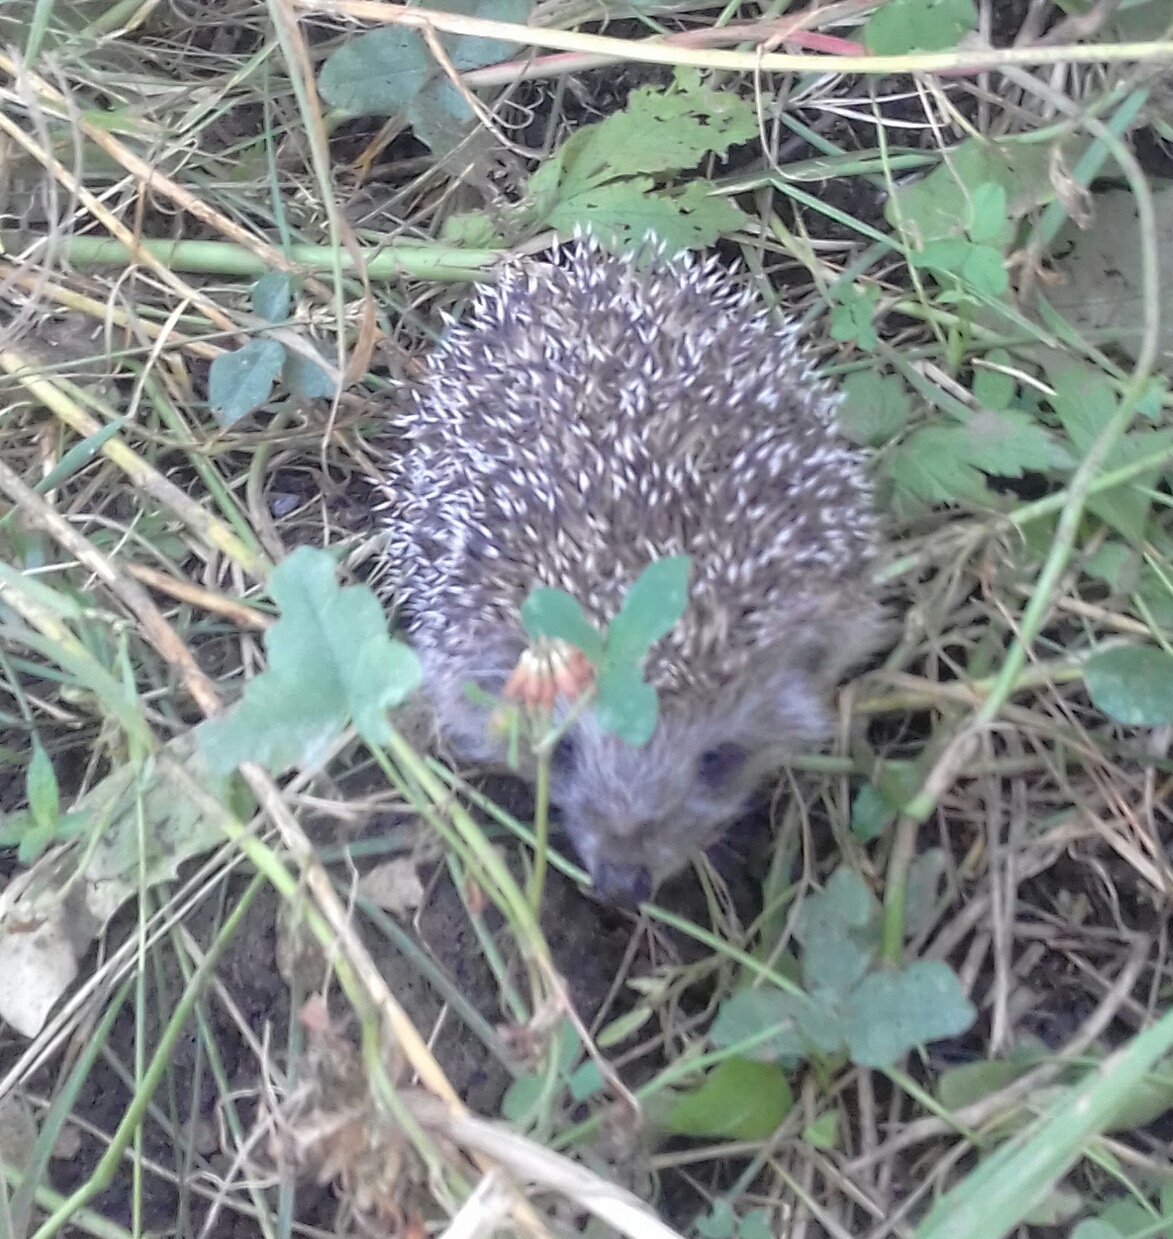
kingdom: Animalia
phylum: Chordata
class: Mammalia
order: Erinaceomorpha
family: Erinaceidae
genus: Erinaceus
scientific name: Erinaceus roumanicus
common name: Northern white-breasted hedgehog
